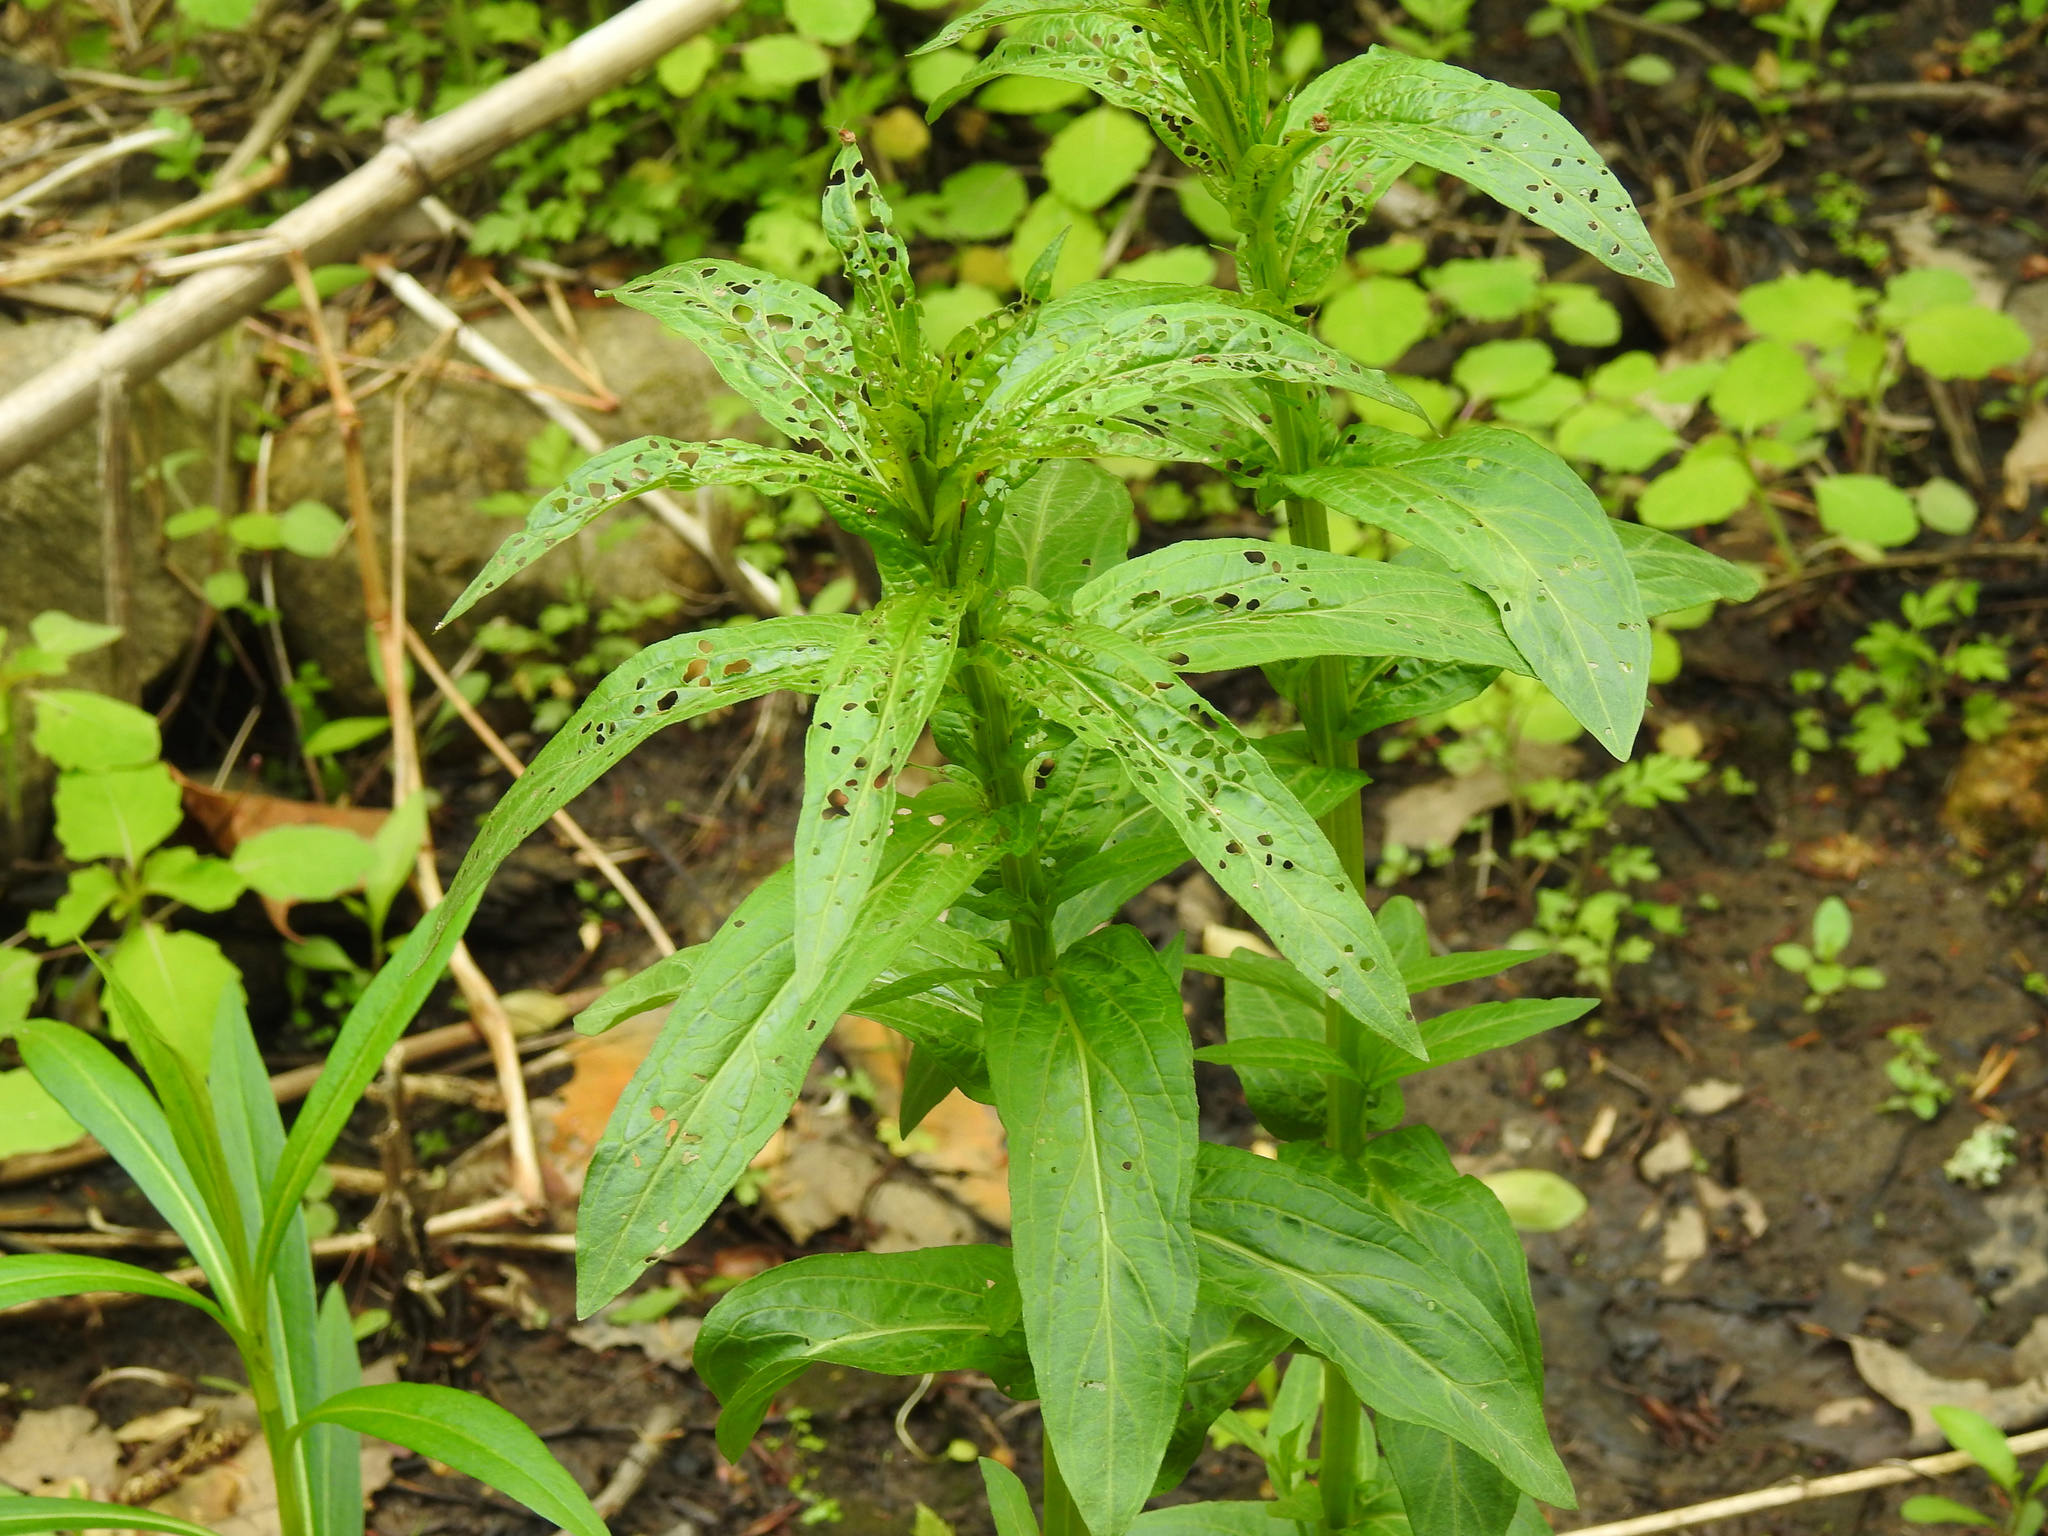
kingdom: Plantae
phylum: Tracheophyta
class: Magnoliopsida
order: Myrtales
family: Lythraceae
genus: Lythrum
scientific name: Lythrum salicaria
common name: Purple loosestrife
